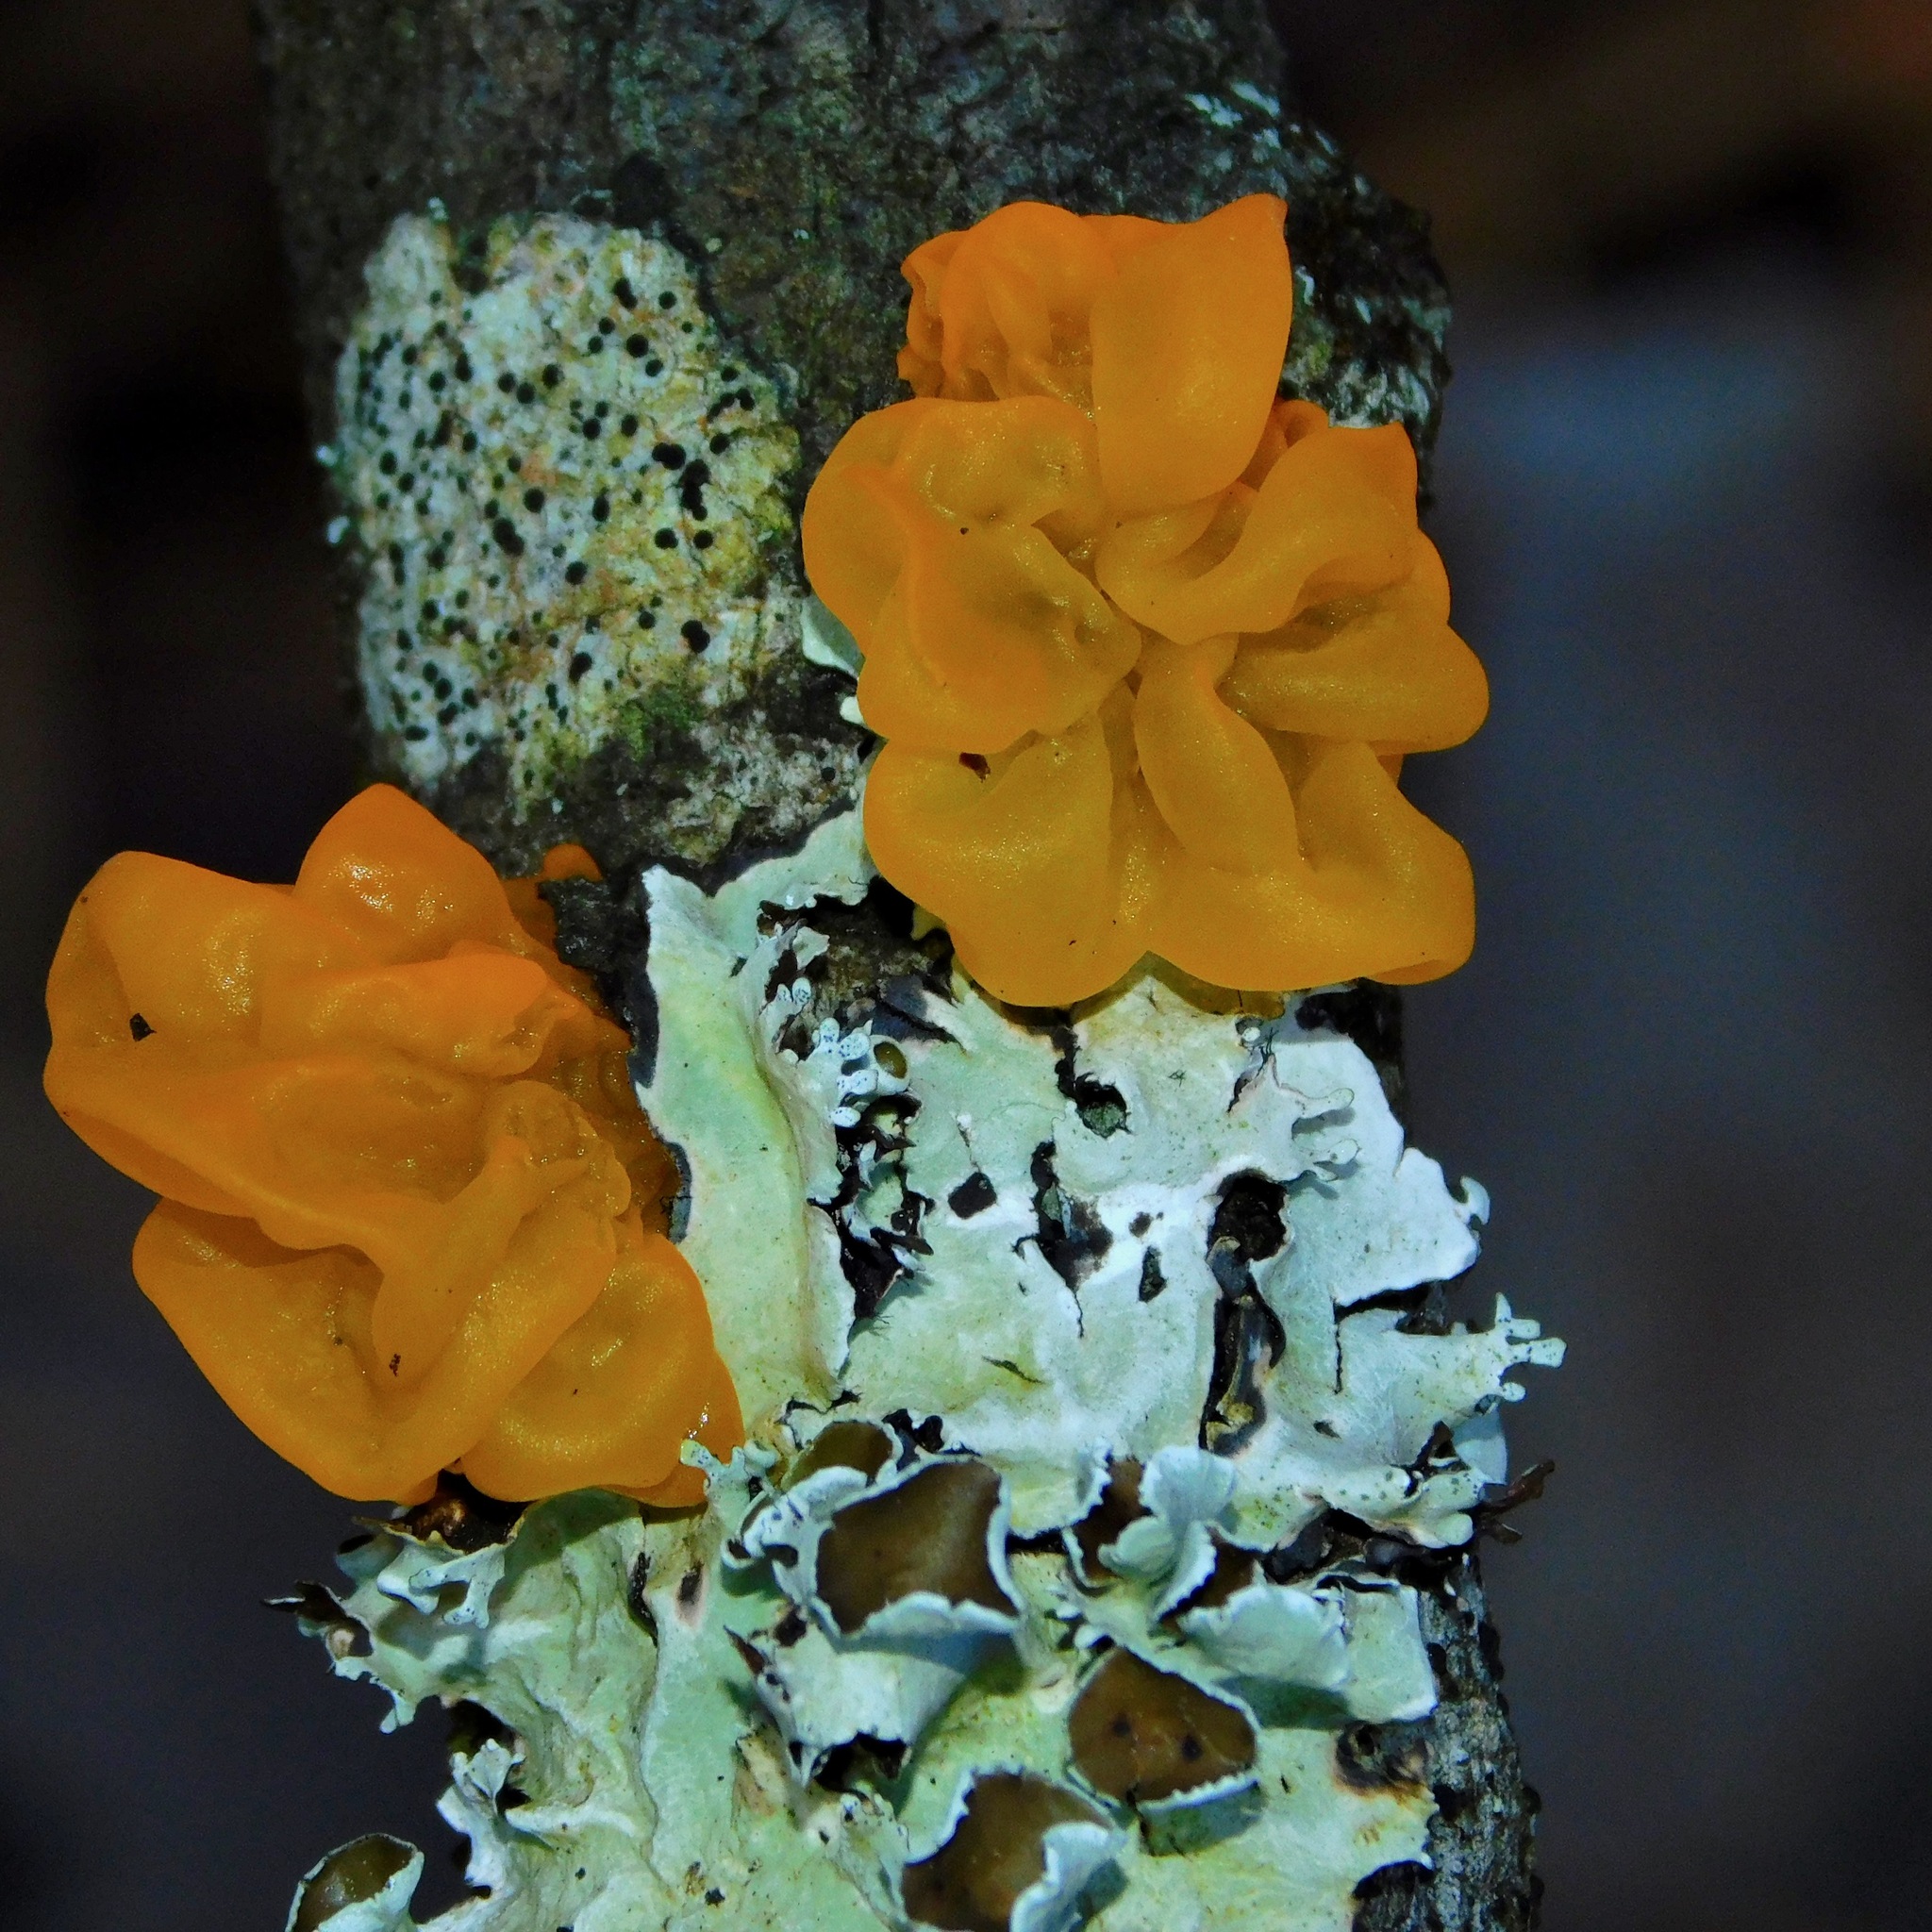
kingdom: Fungi
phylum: Basidiomycota
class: Tremellomycetes
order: Tremellales
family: Tremellaceae
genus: Tremella
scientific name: Tremella mesenterica
